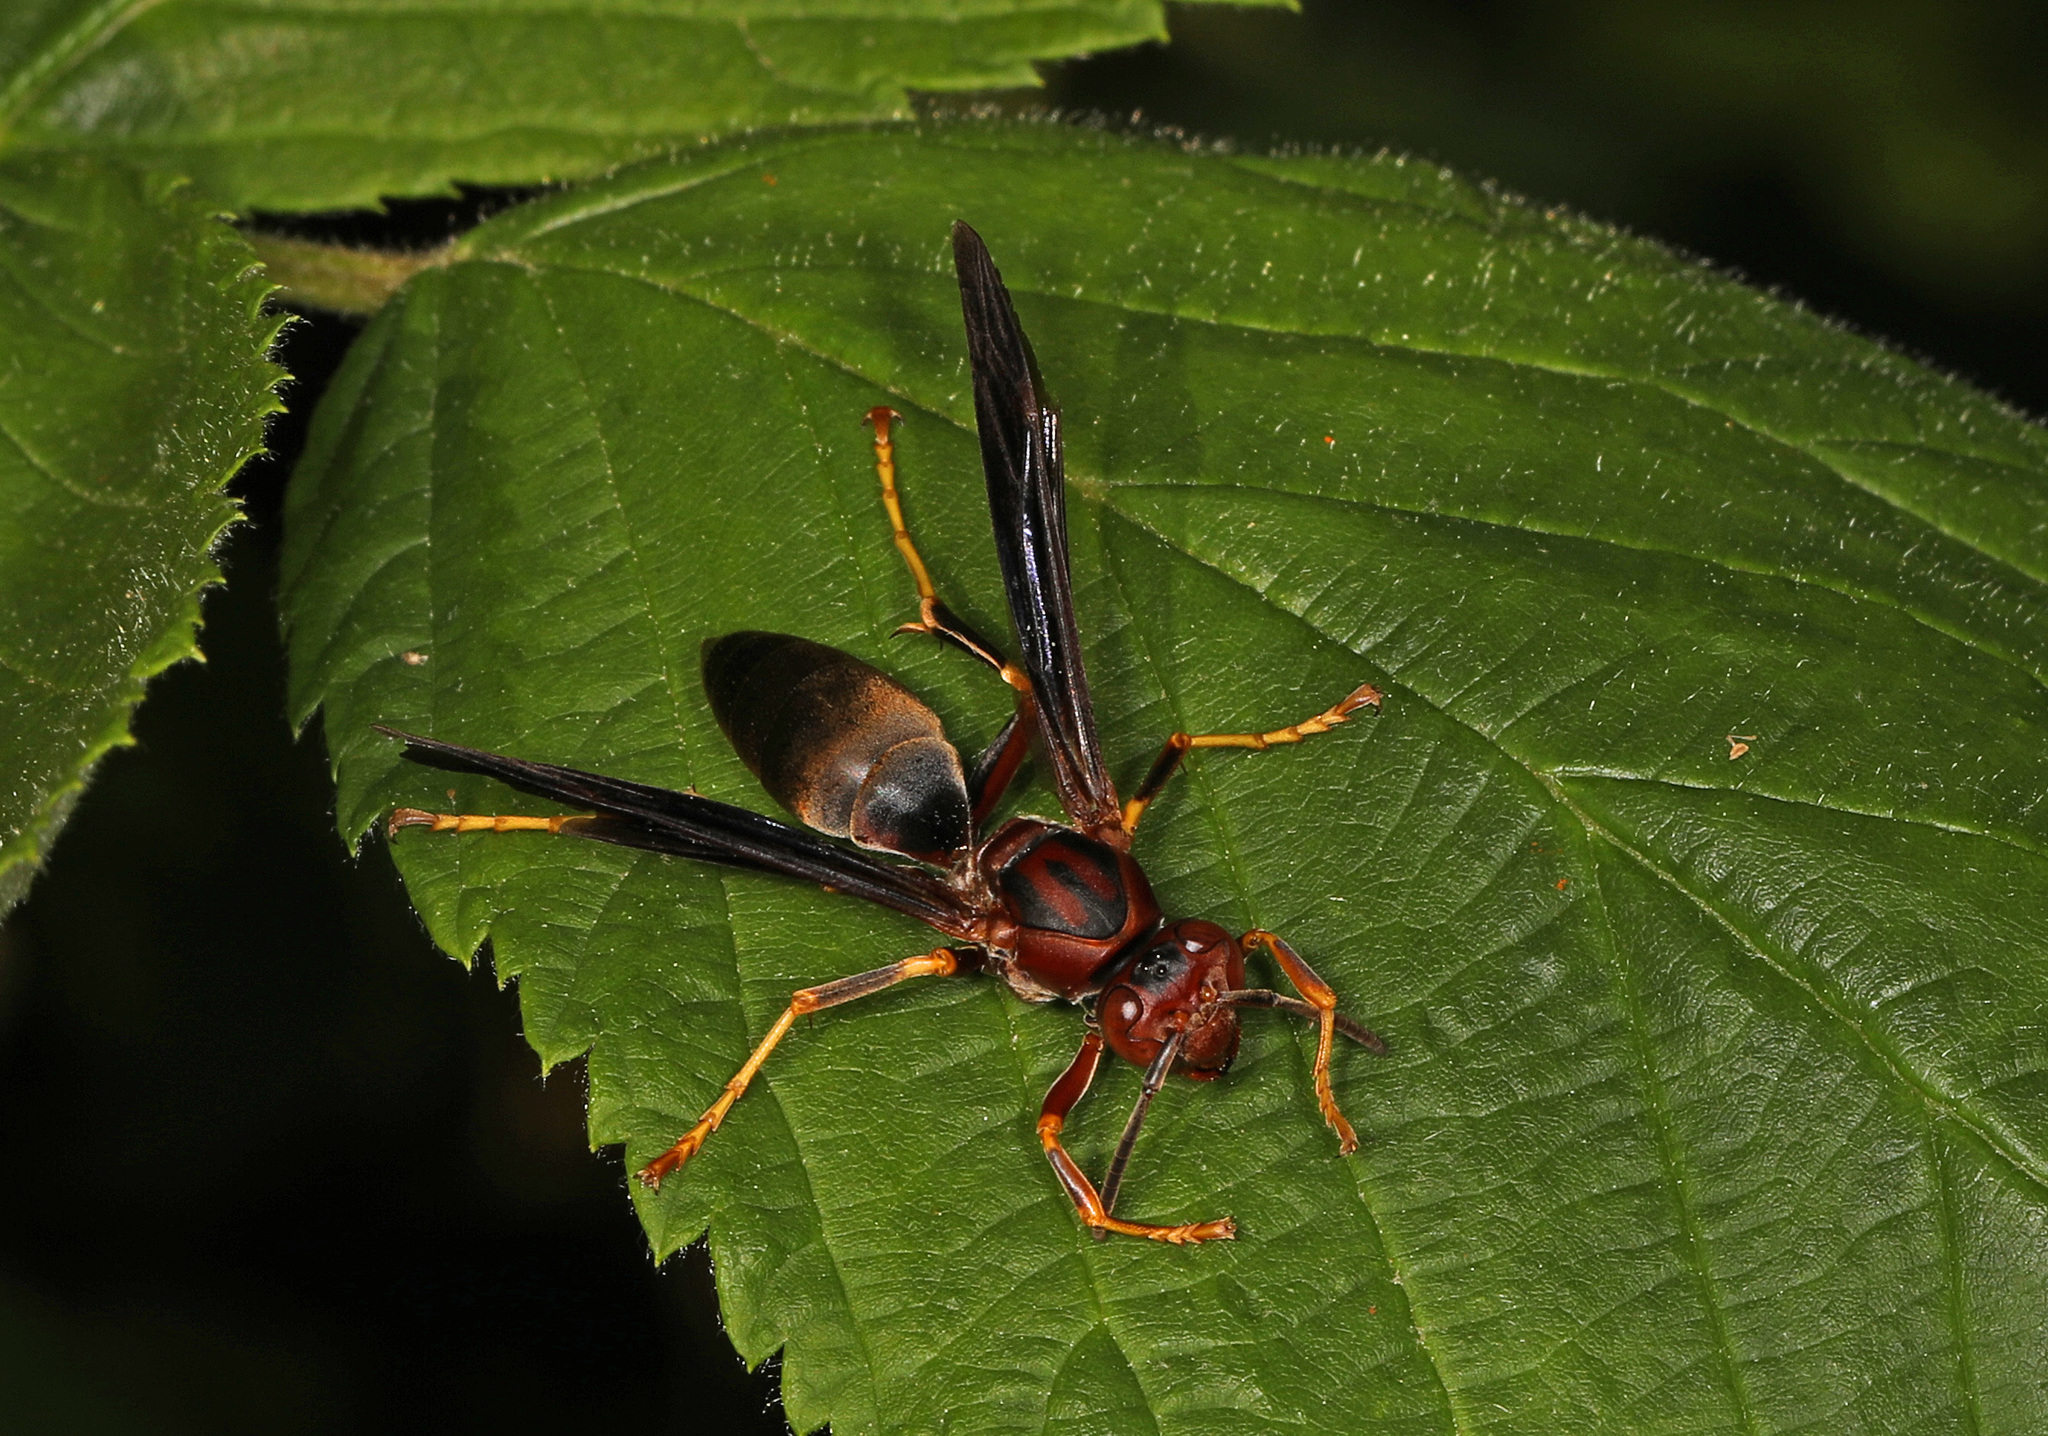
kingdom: Animalia
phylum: Arthropoda
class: Insecta
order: Hymenoptera
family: Eumenidae
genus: Polistes
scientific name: Polistes metricus
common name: Metric paper wasp
